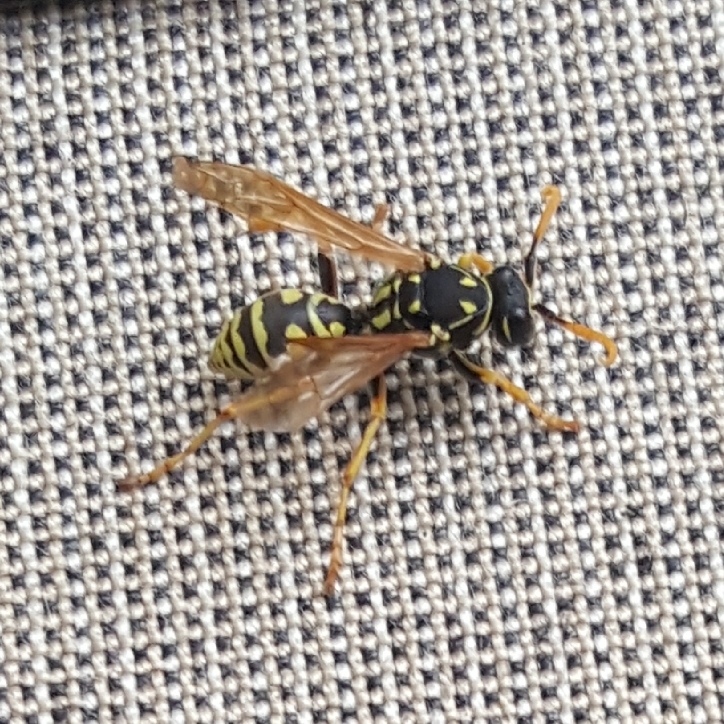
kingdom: Animalia
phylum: Arthropoda
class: Insecta
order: Hymenoptera
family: Eumenidae
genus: Polistes
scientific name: Polistes dominula
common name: Paper wasp
